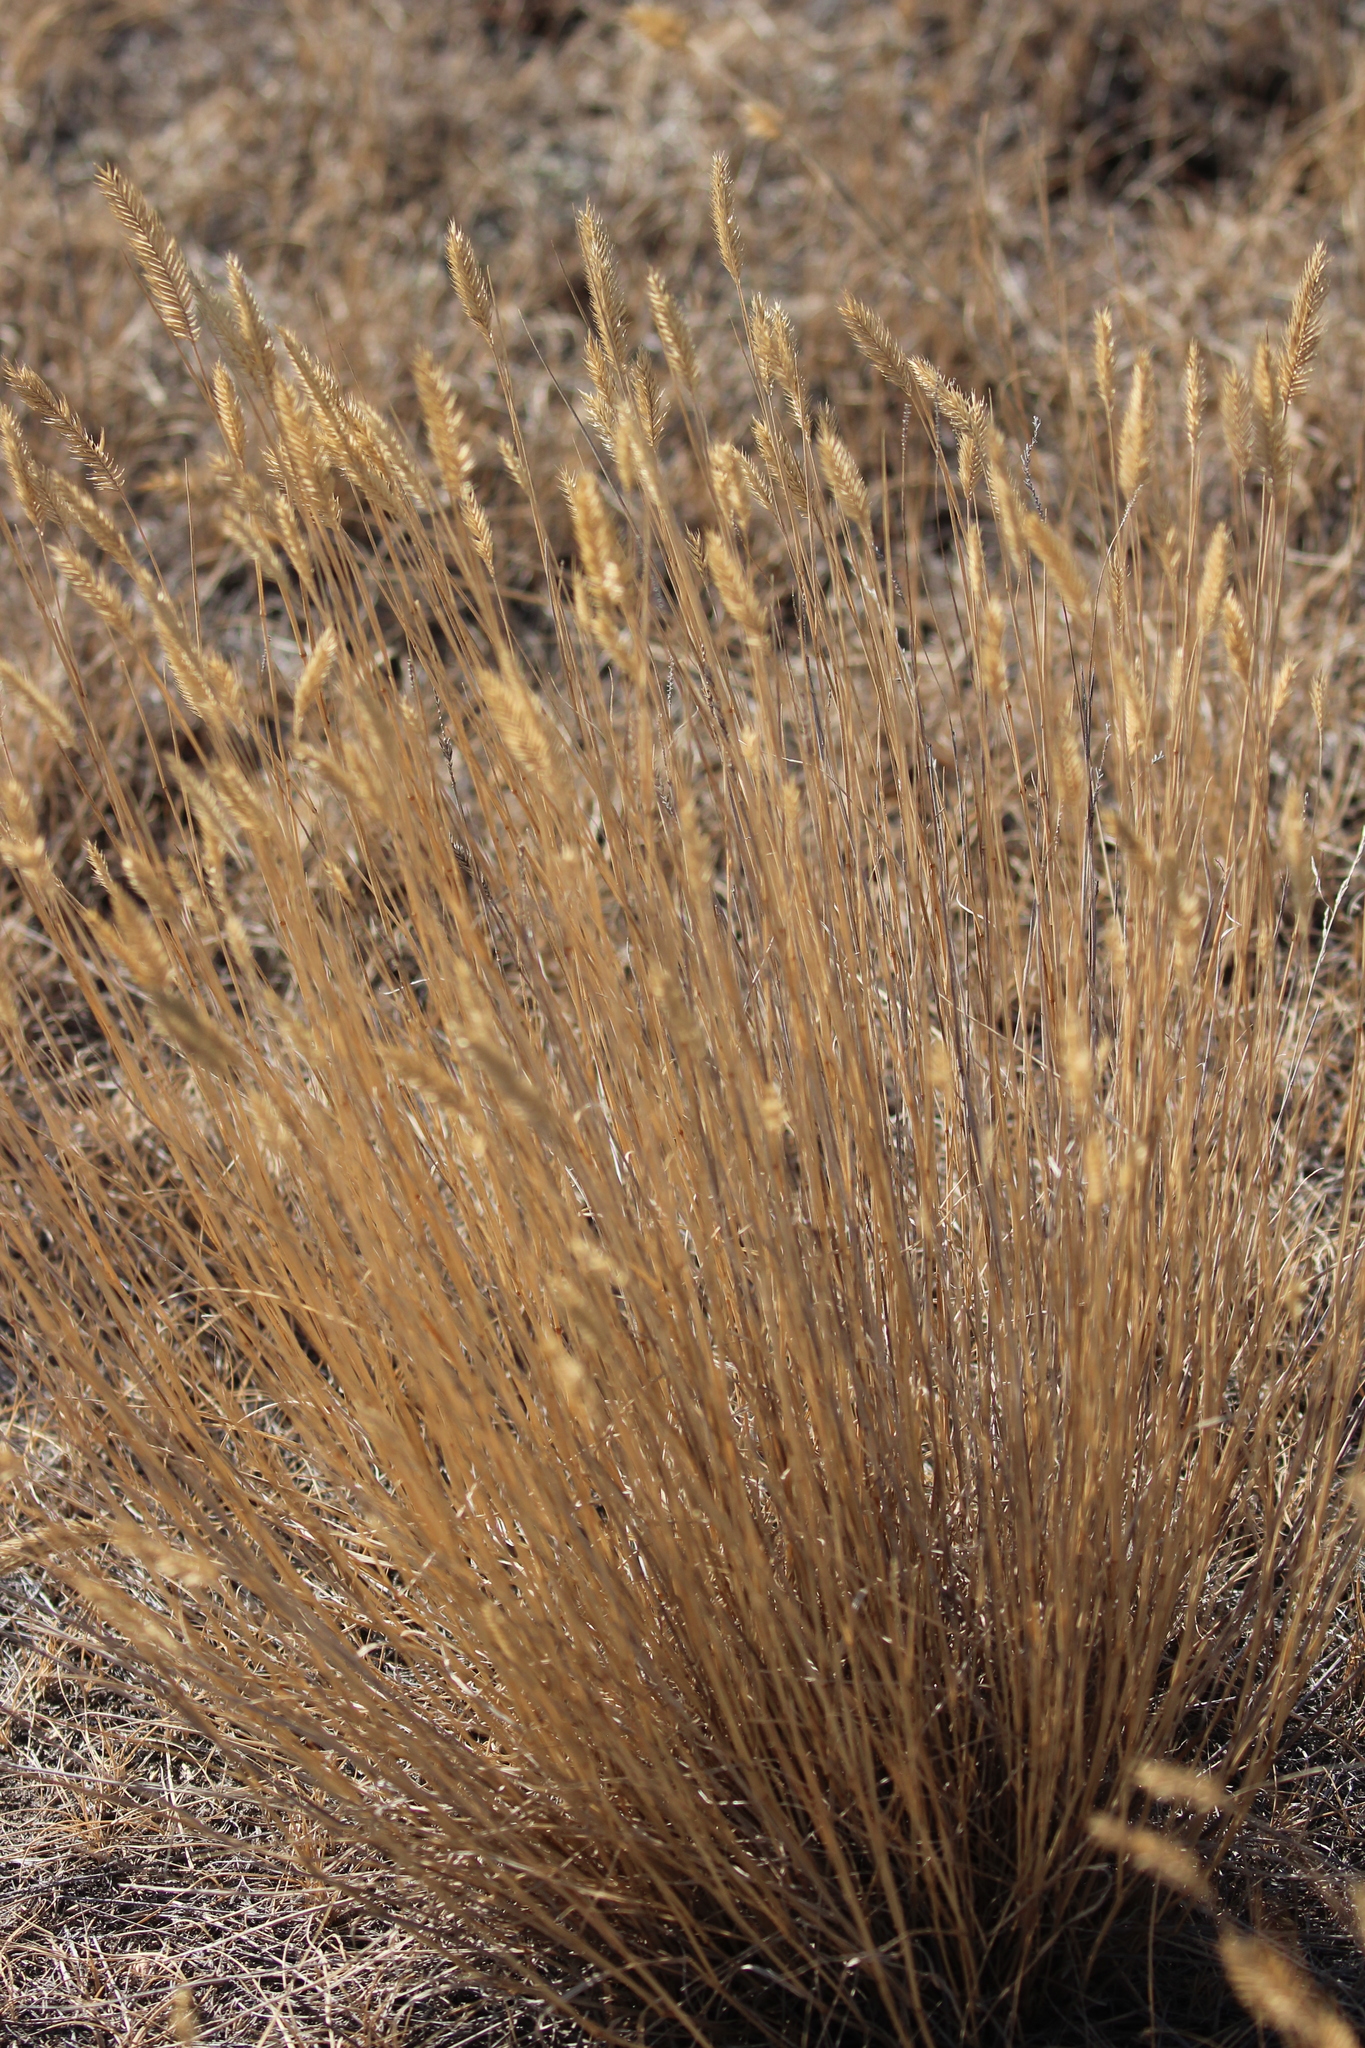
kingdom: Plantae
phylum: Tracheophyta
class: Liliopsida
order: Poales
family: Poaceae
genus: Agropyron
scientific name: Agropyron cristatum
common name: Crested wheatgrass
